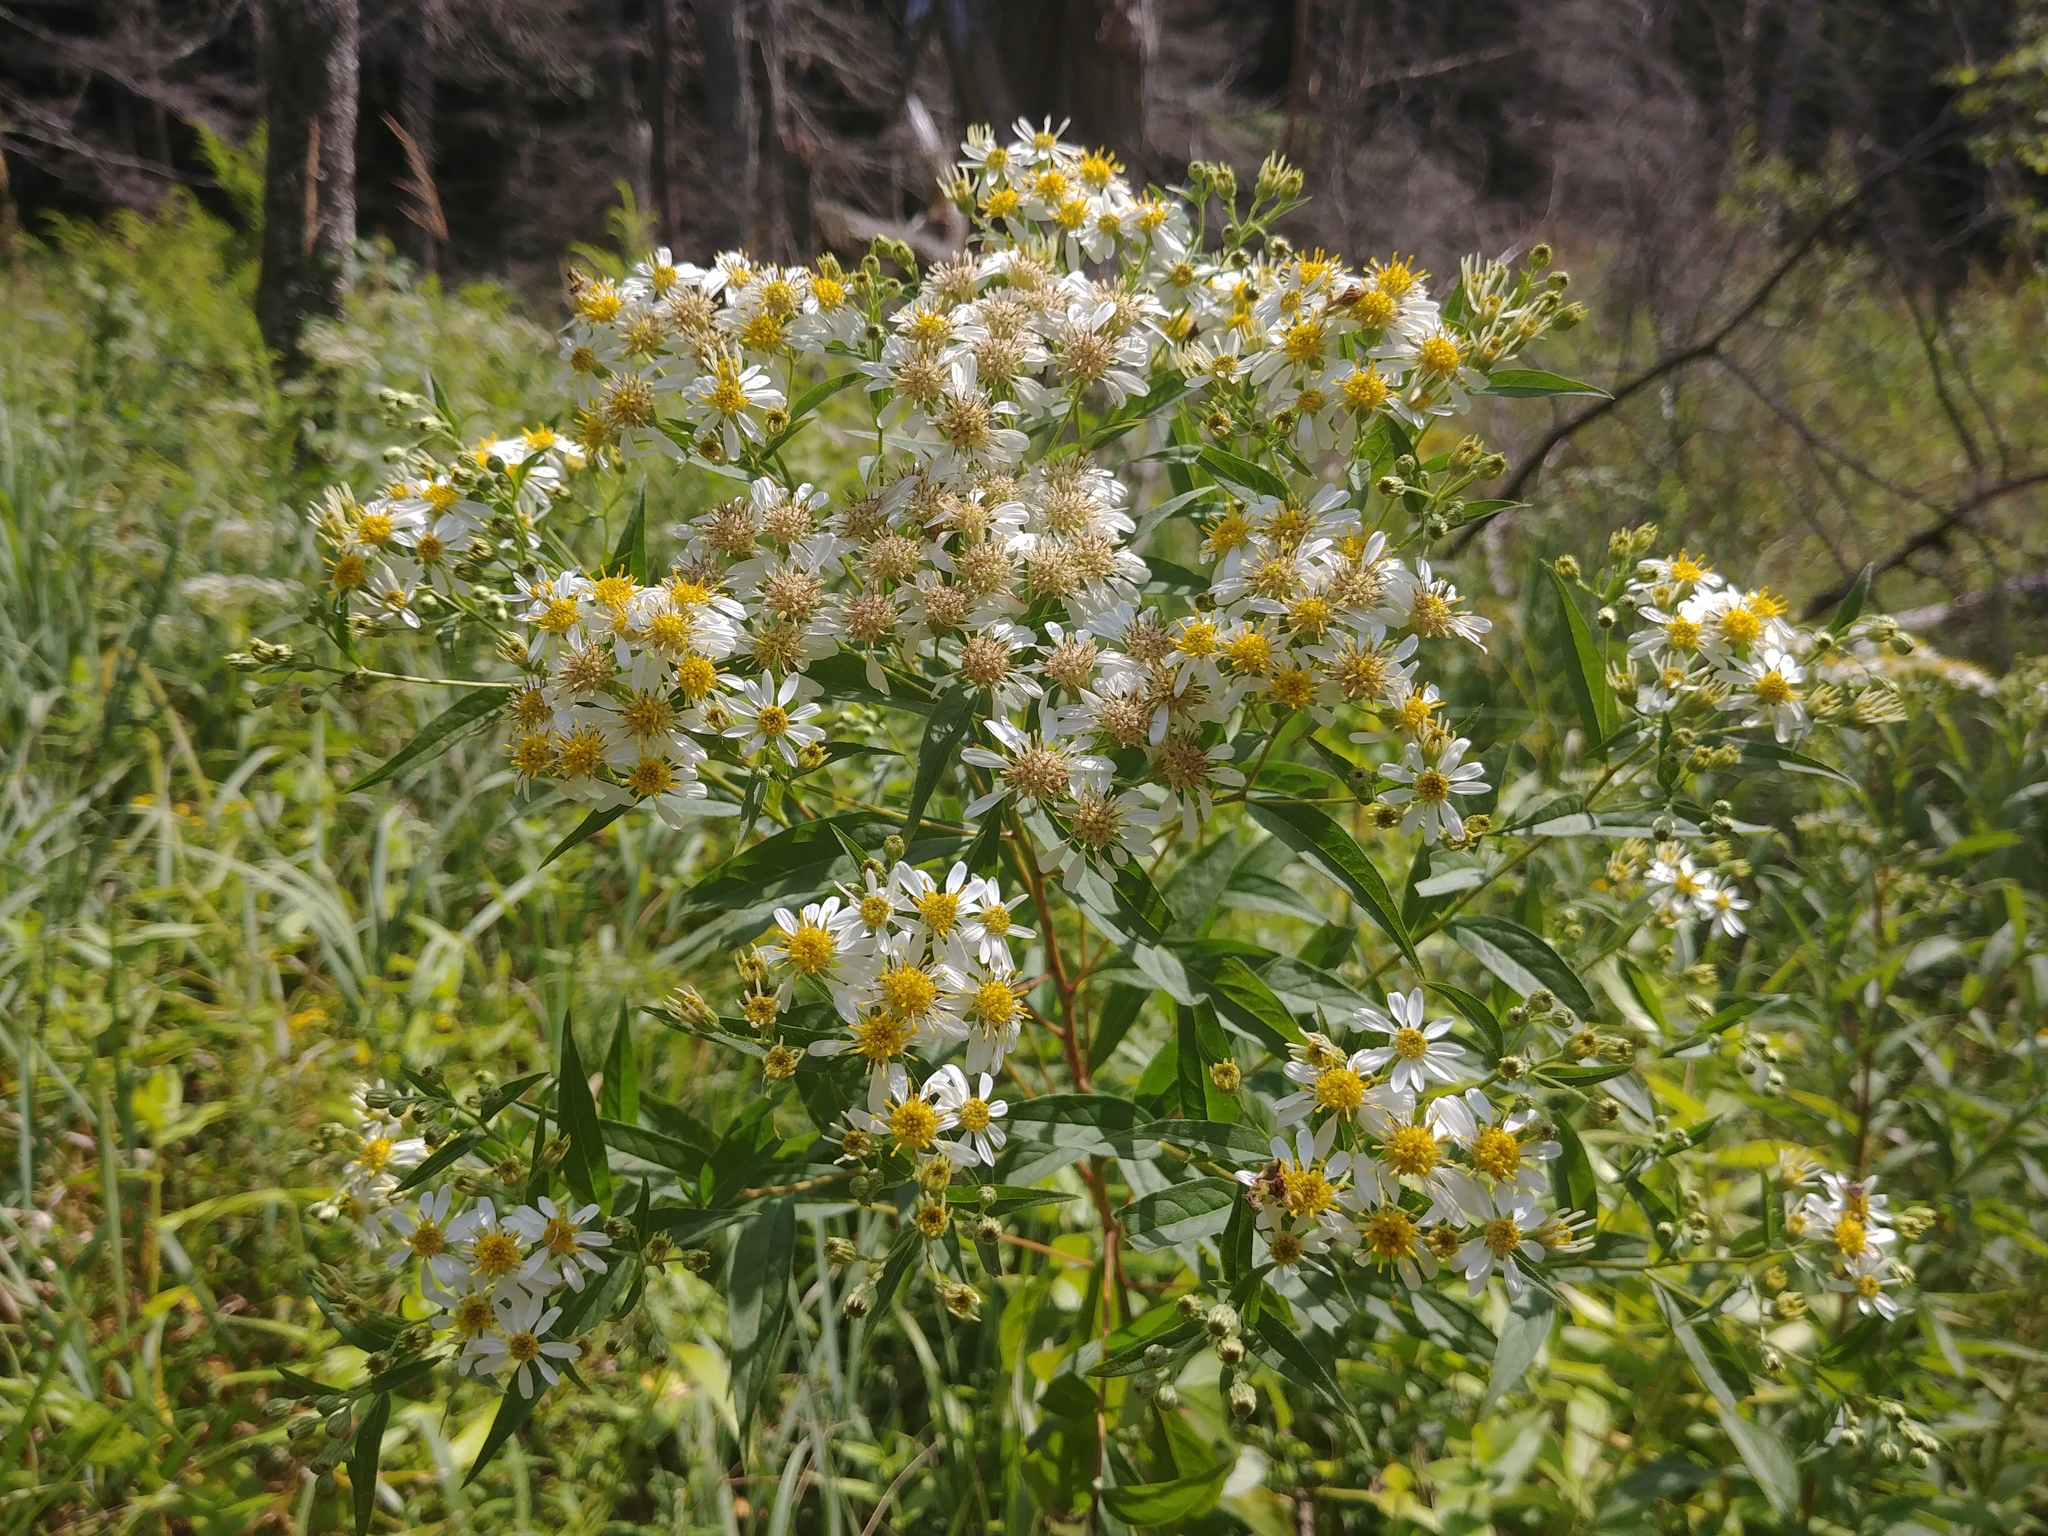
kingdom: Plantae
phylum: Tracheophyta
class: Magnoliopsida
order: Asterales
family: Asteraceae
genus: Doellingeria
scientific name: Doellingeria umbellata
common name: Flat-top white aster
